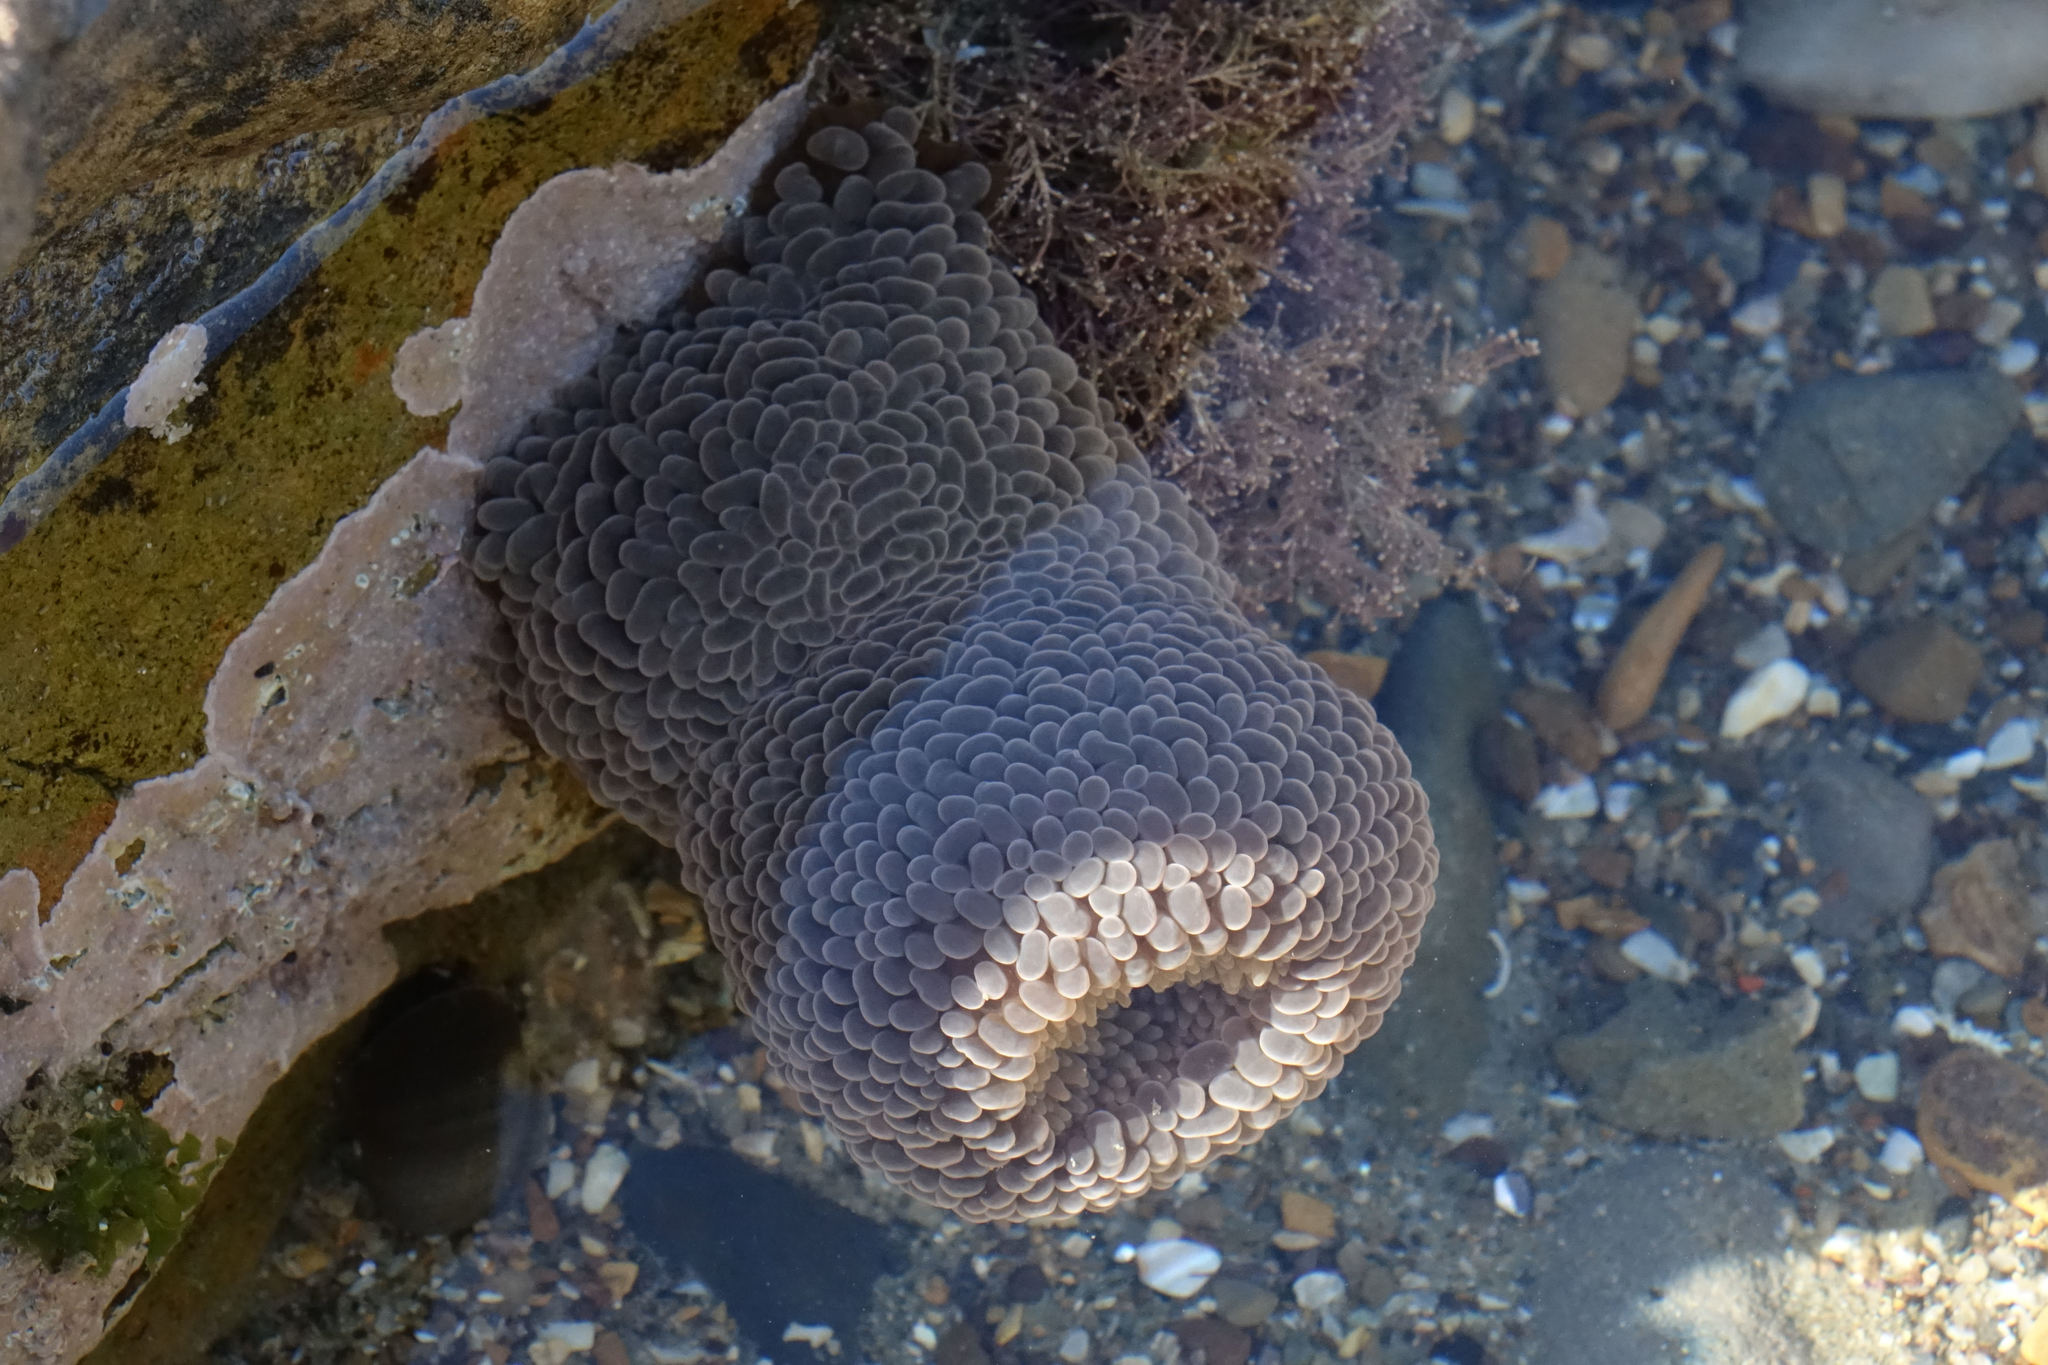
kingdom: Animalia
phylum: Cnidaria
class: Anthozoa
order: Actiniaria
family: Actiniidae
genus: Phlyctenactis
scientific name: Phlyctenactis tuberculosa
